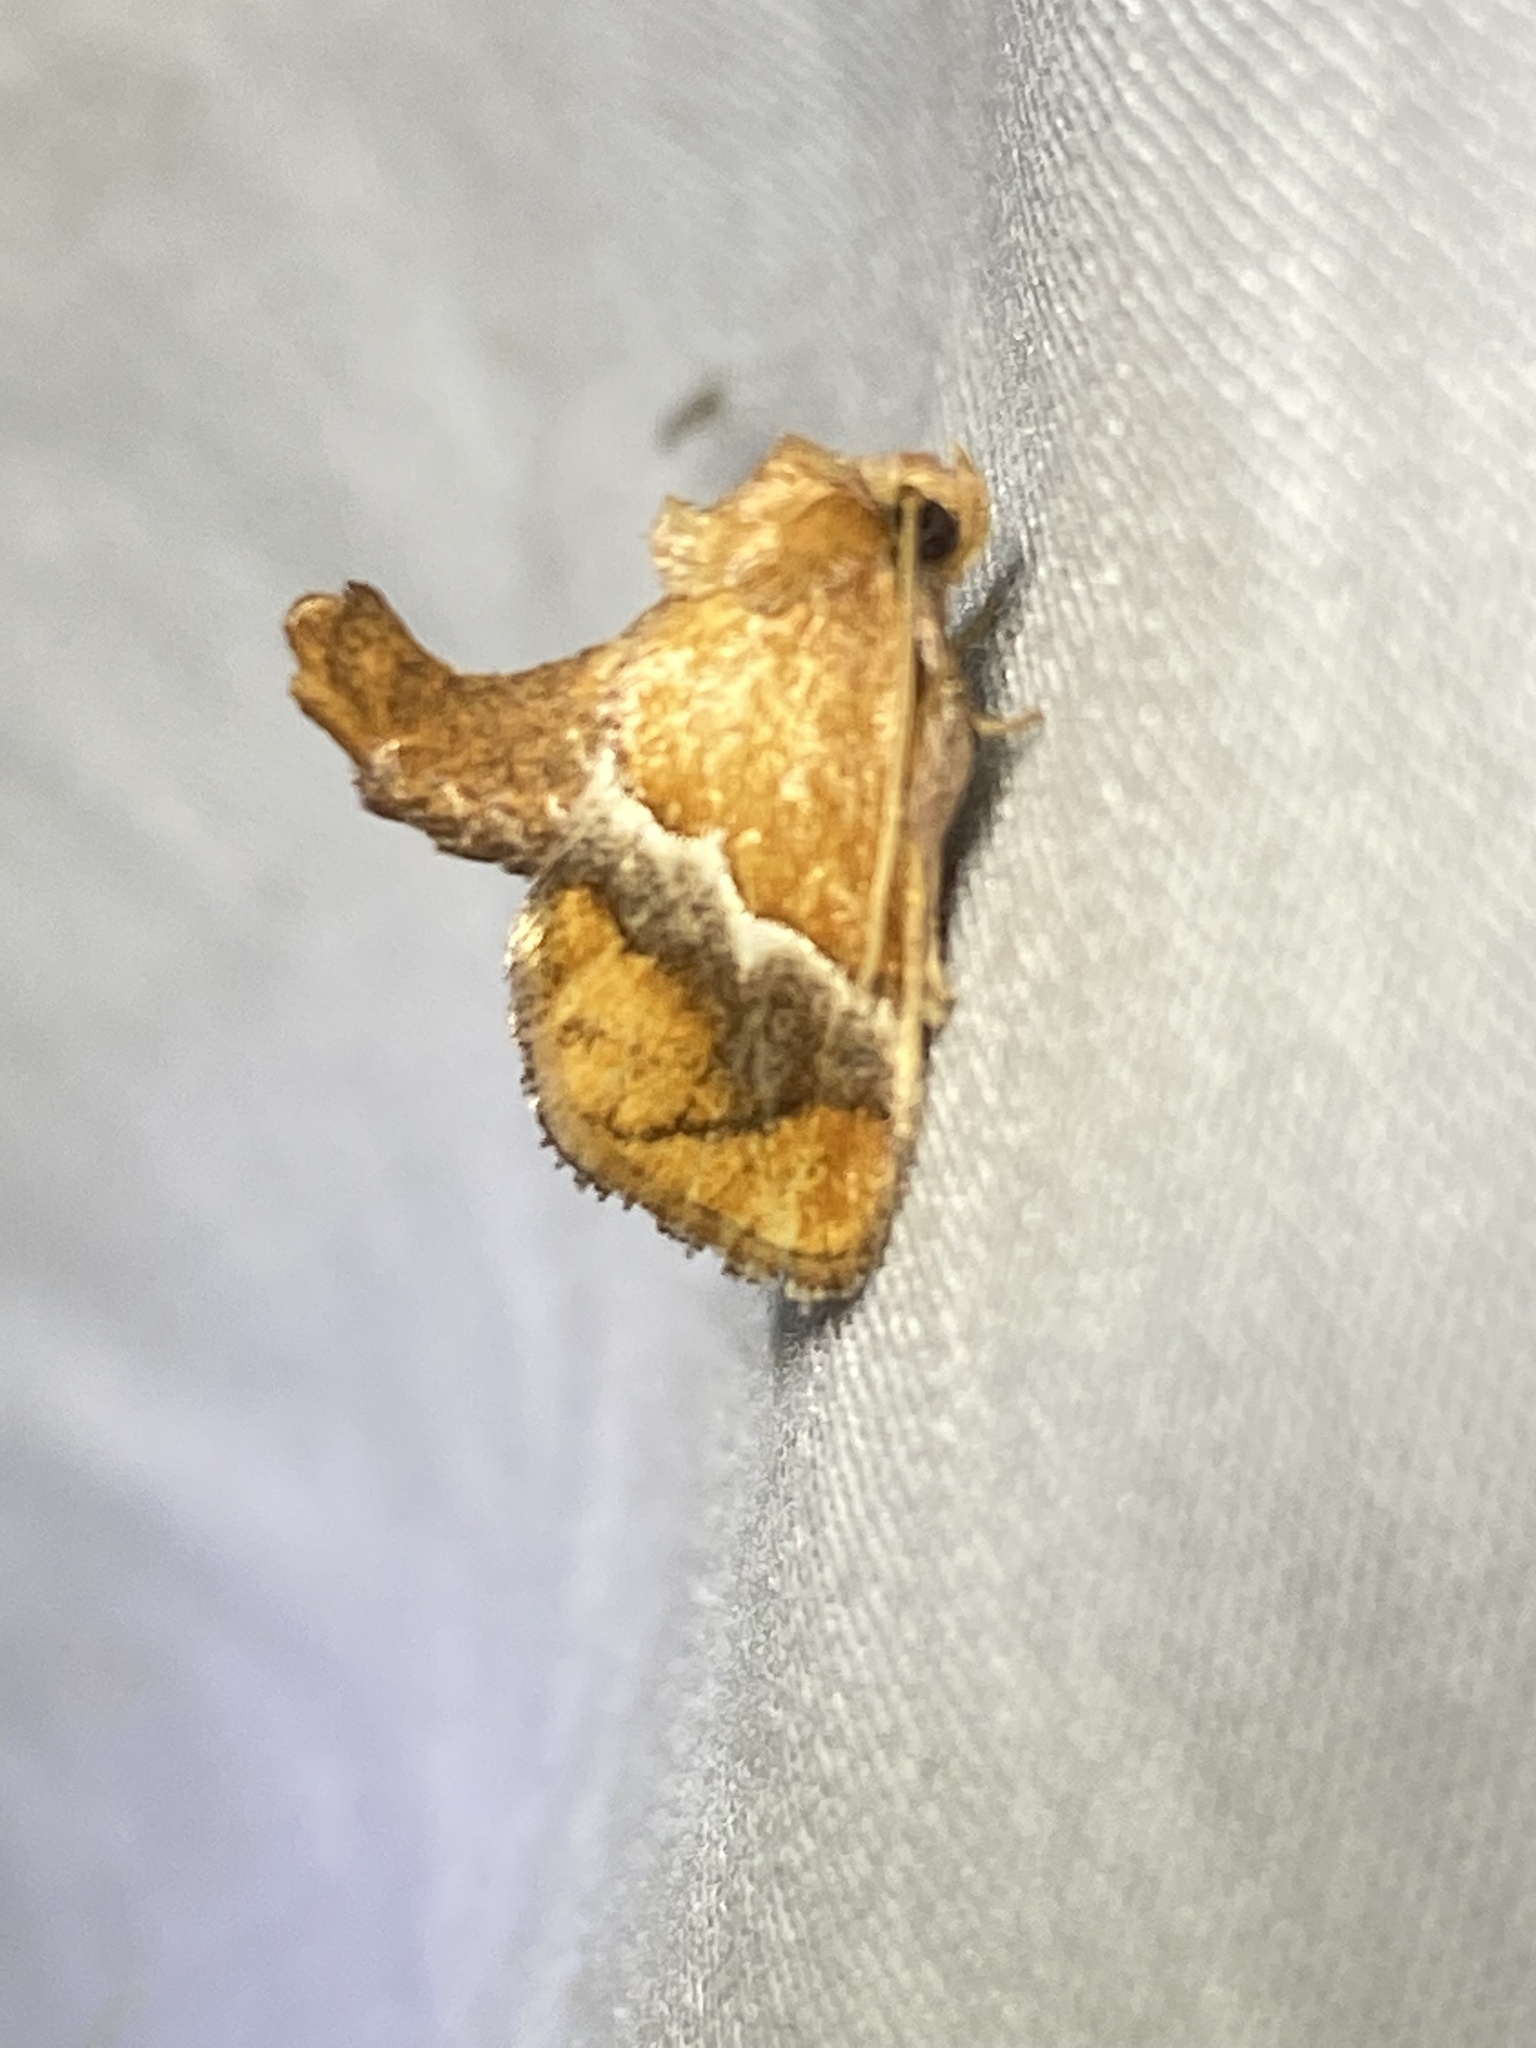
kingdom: Animalia
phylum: Arthropoda
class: Insecta
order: Lepidoptera
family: Limacodidae
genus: Lithacodes
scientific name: Lithacodes fasciola
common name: Yellow-shouldered slug moth
